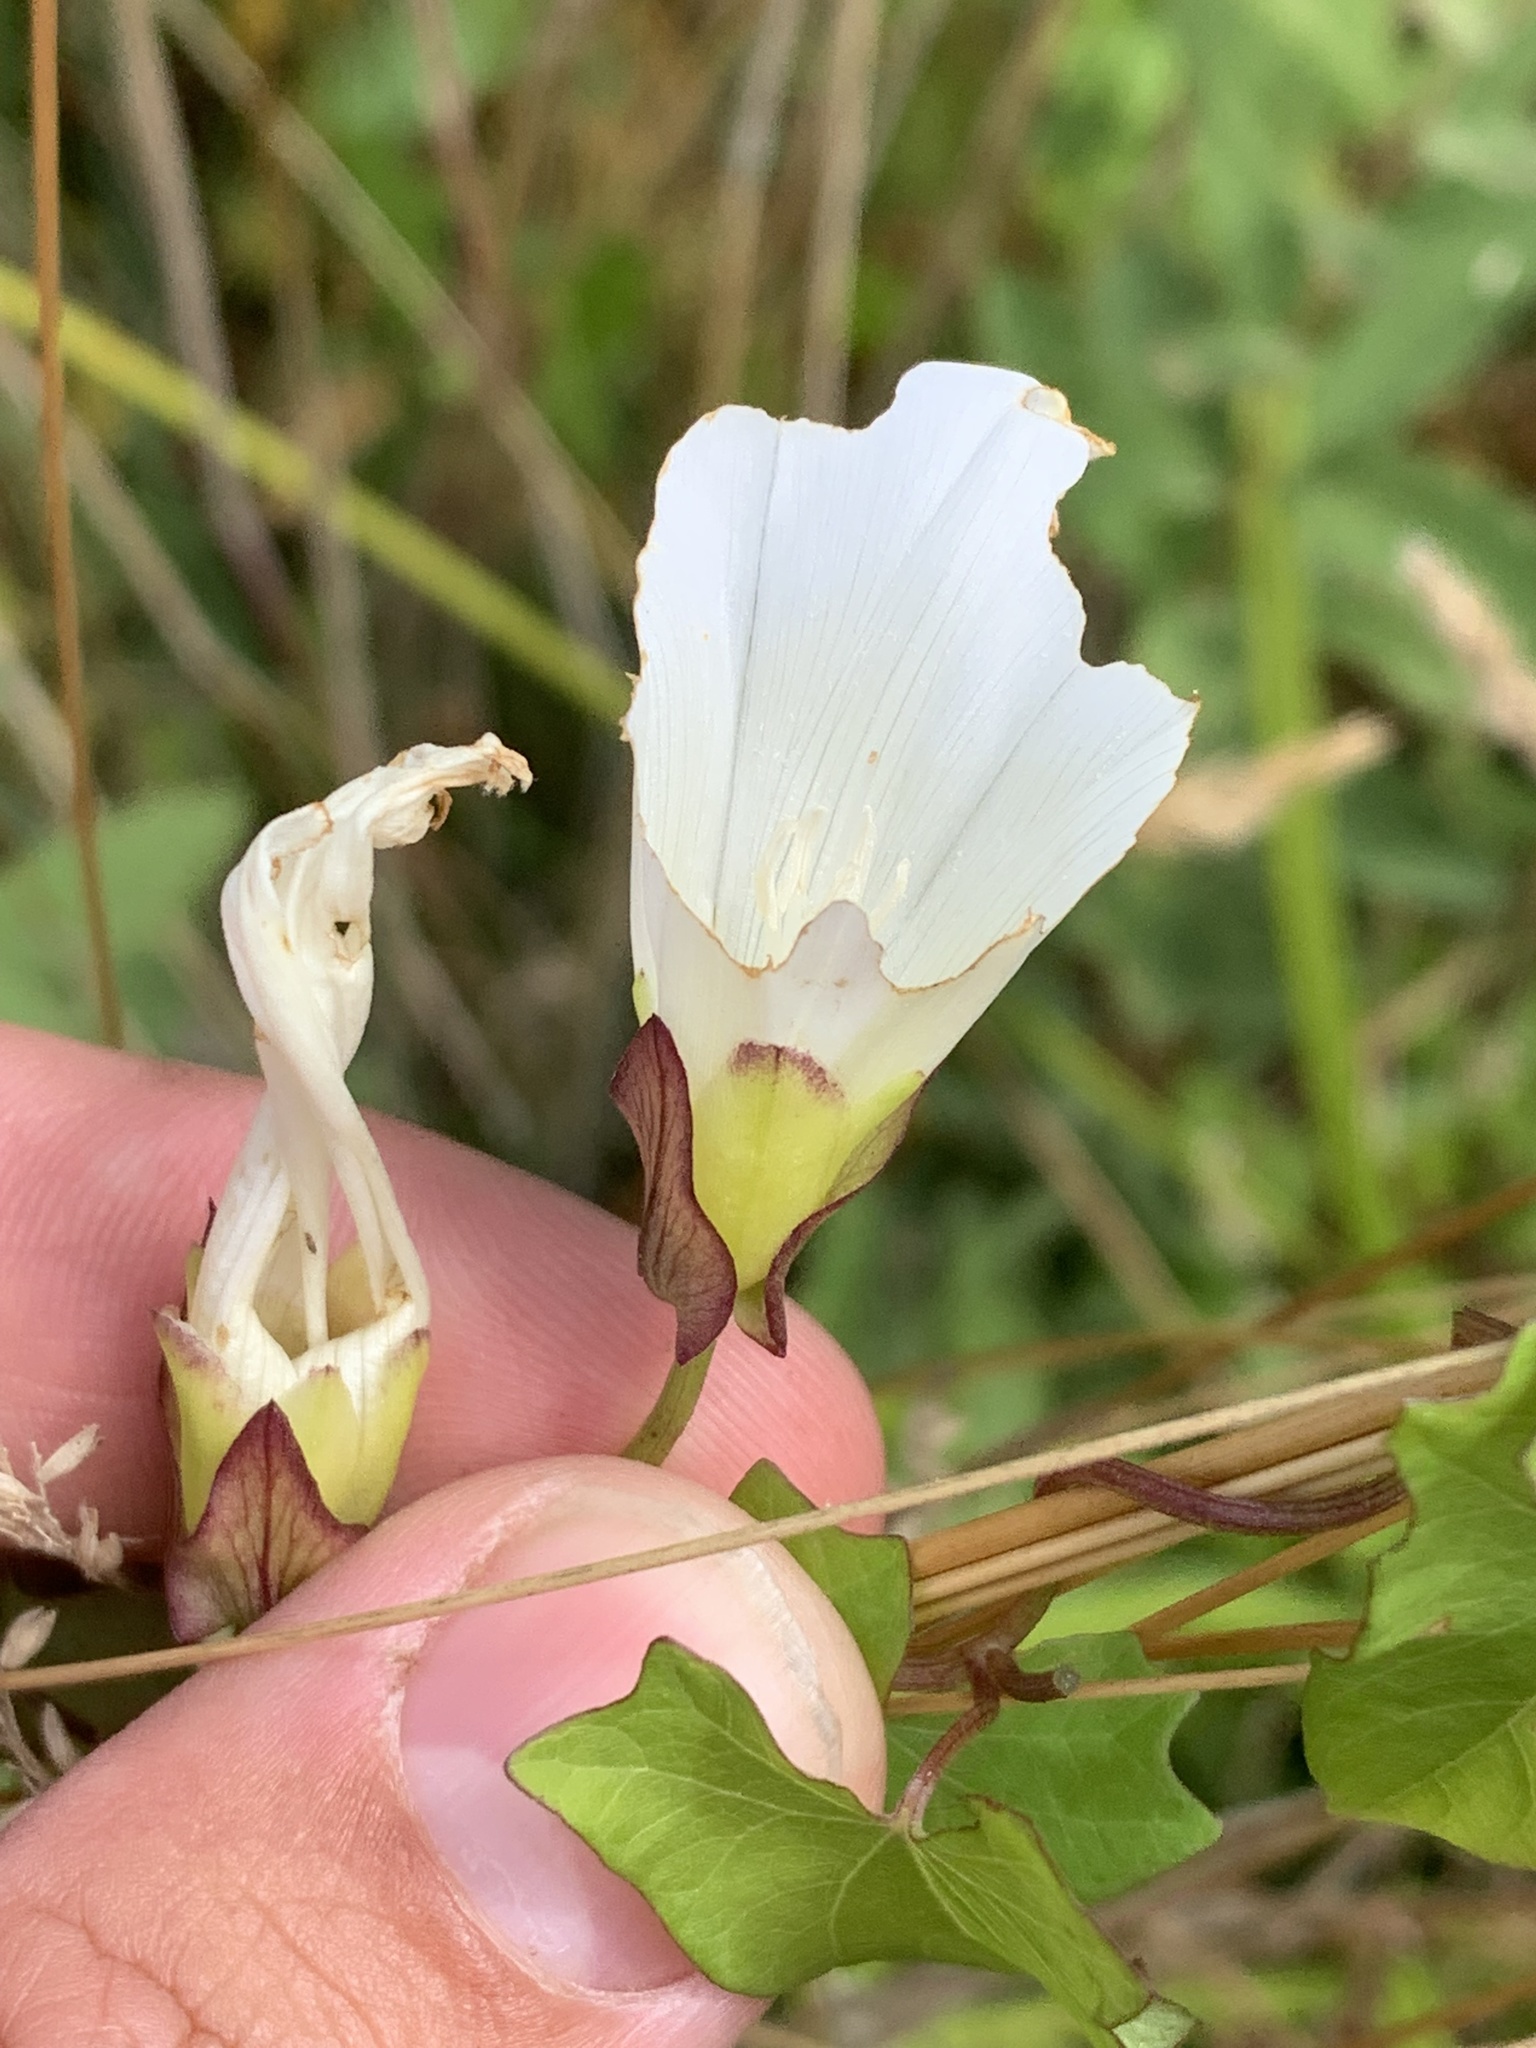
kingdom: Plantae
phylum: Tracheophyta
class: Magnoliopsida
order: Solanales
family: Convolvulaceae
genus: Calystegia
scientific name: Calystegia sepium
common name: Hedge bindweed
